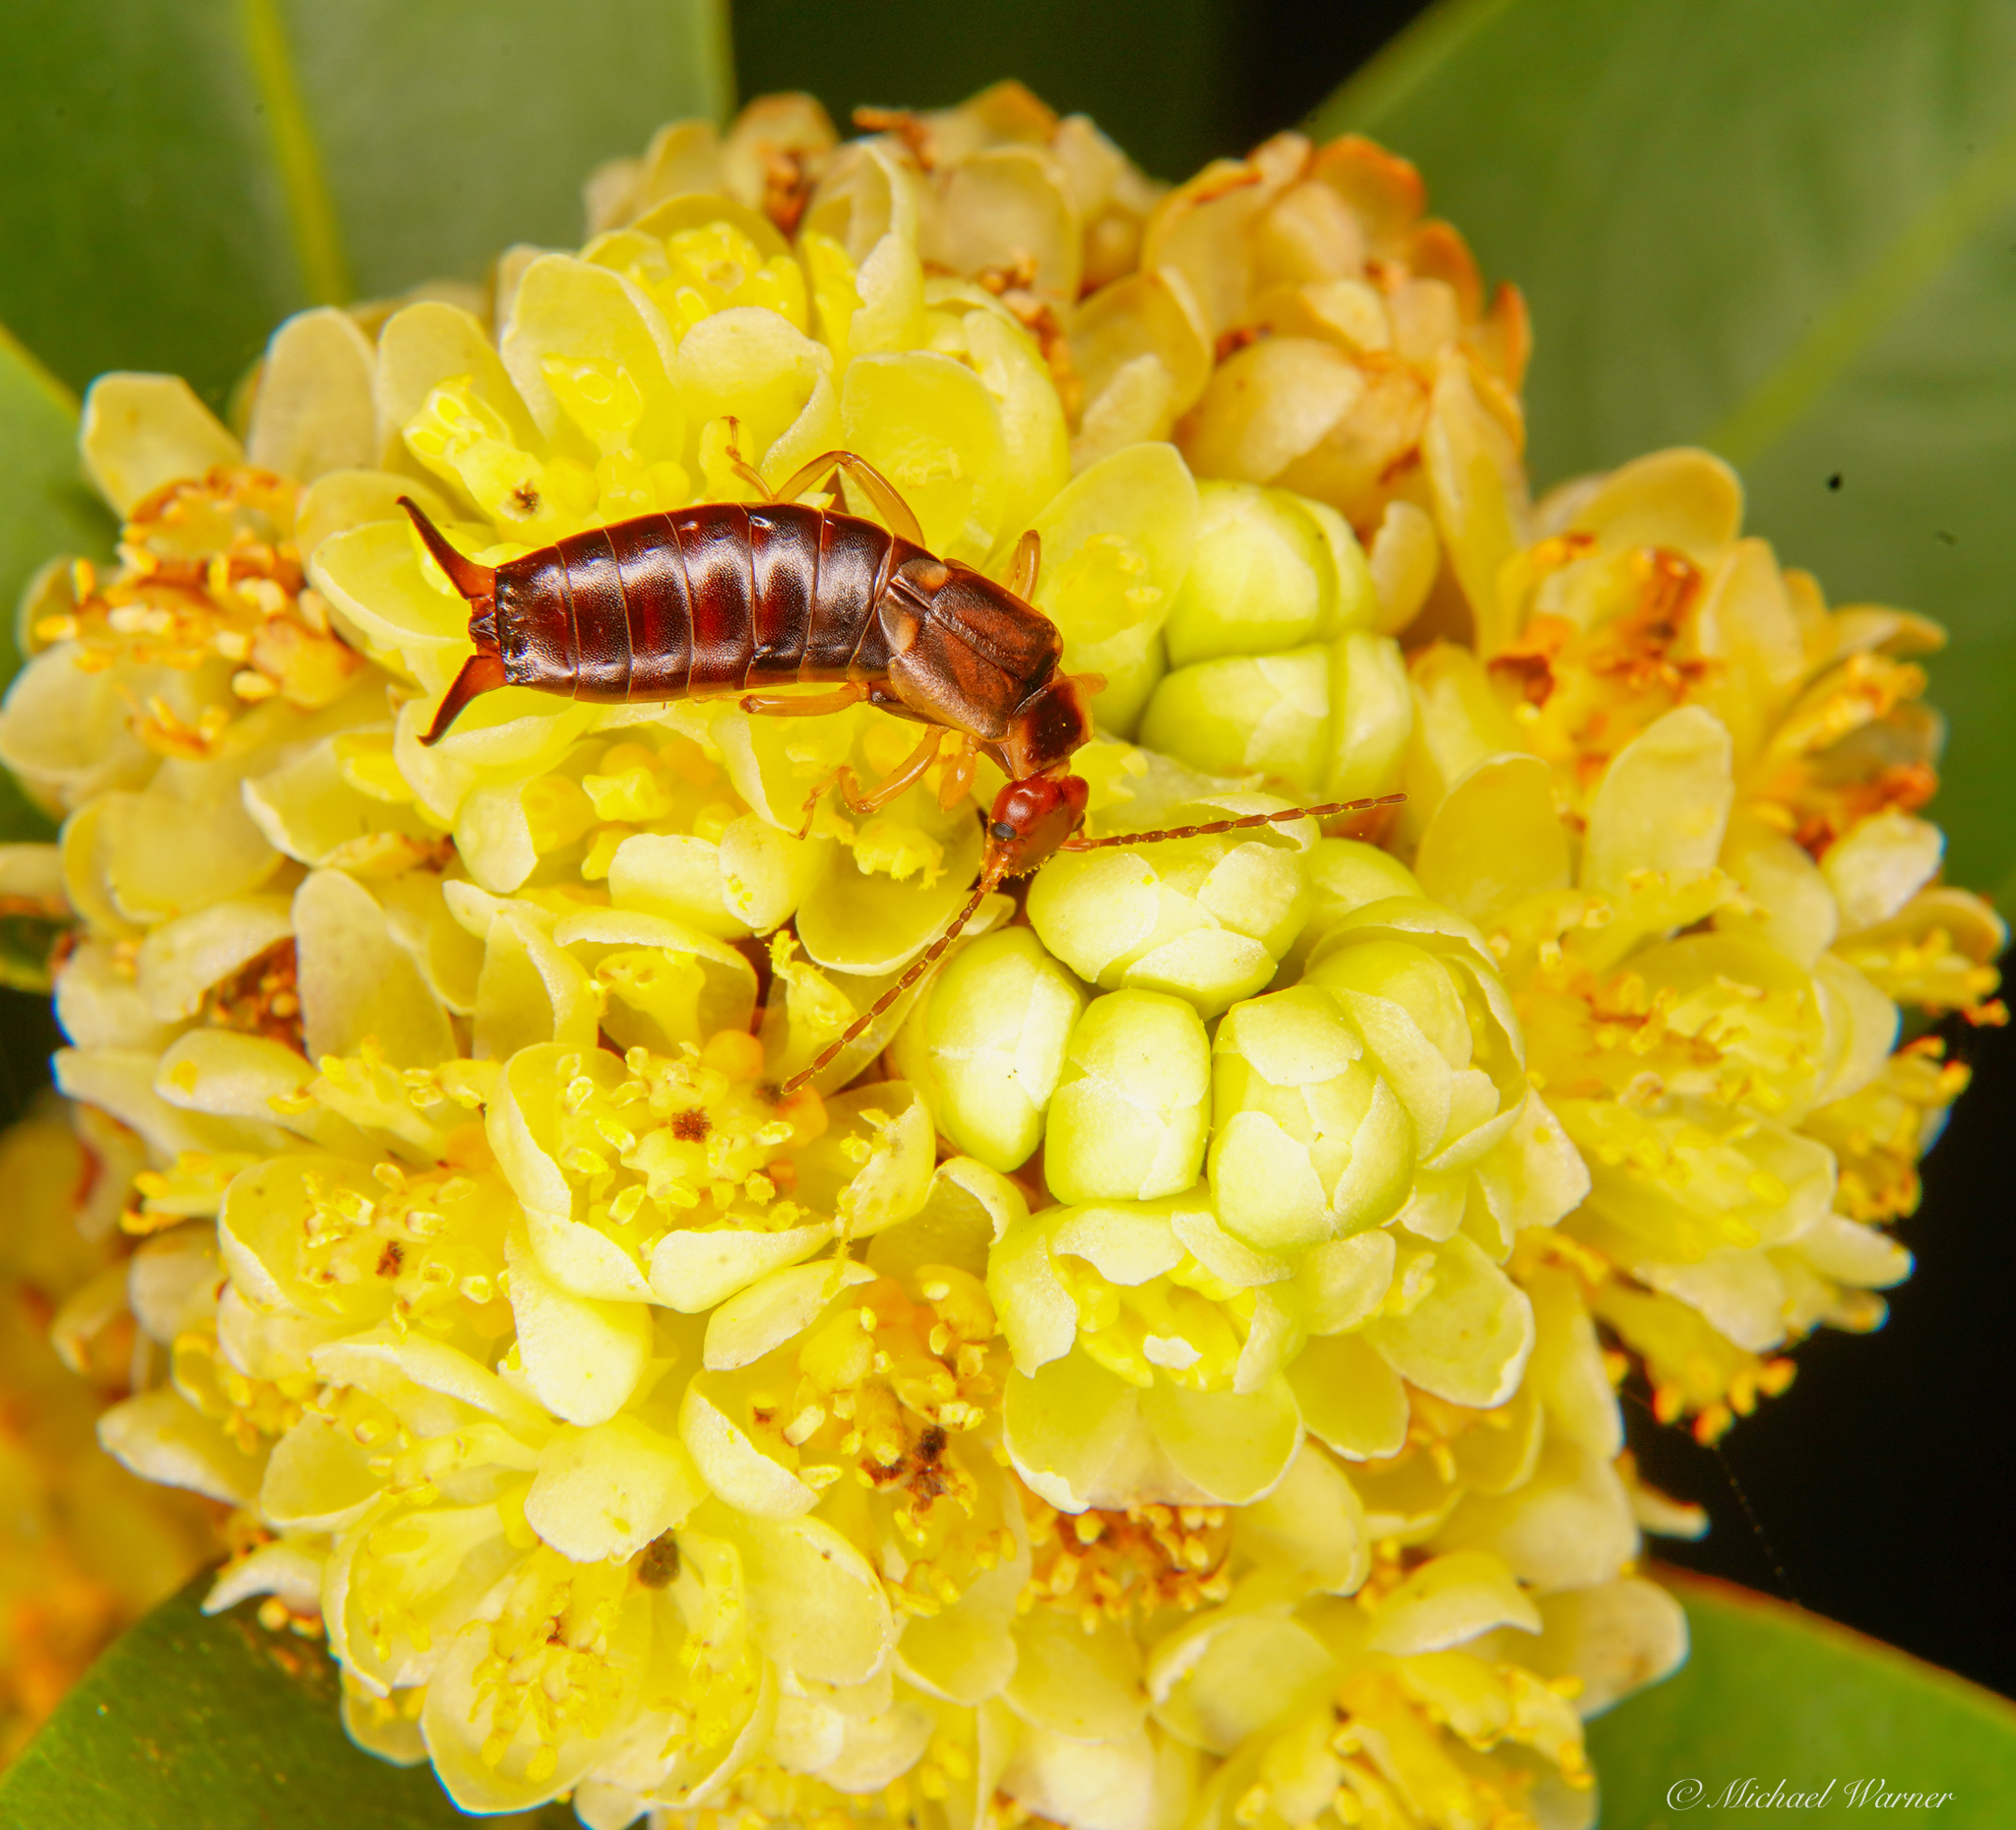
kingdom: Animalia
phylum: Arthropoda
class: Insecta
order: Dermaptera
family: Forficulidae
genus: Forficula
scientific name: Forficula dentata
